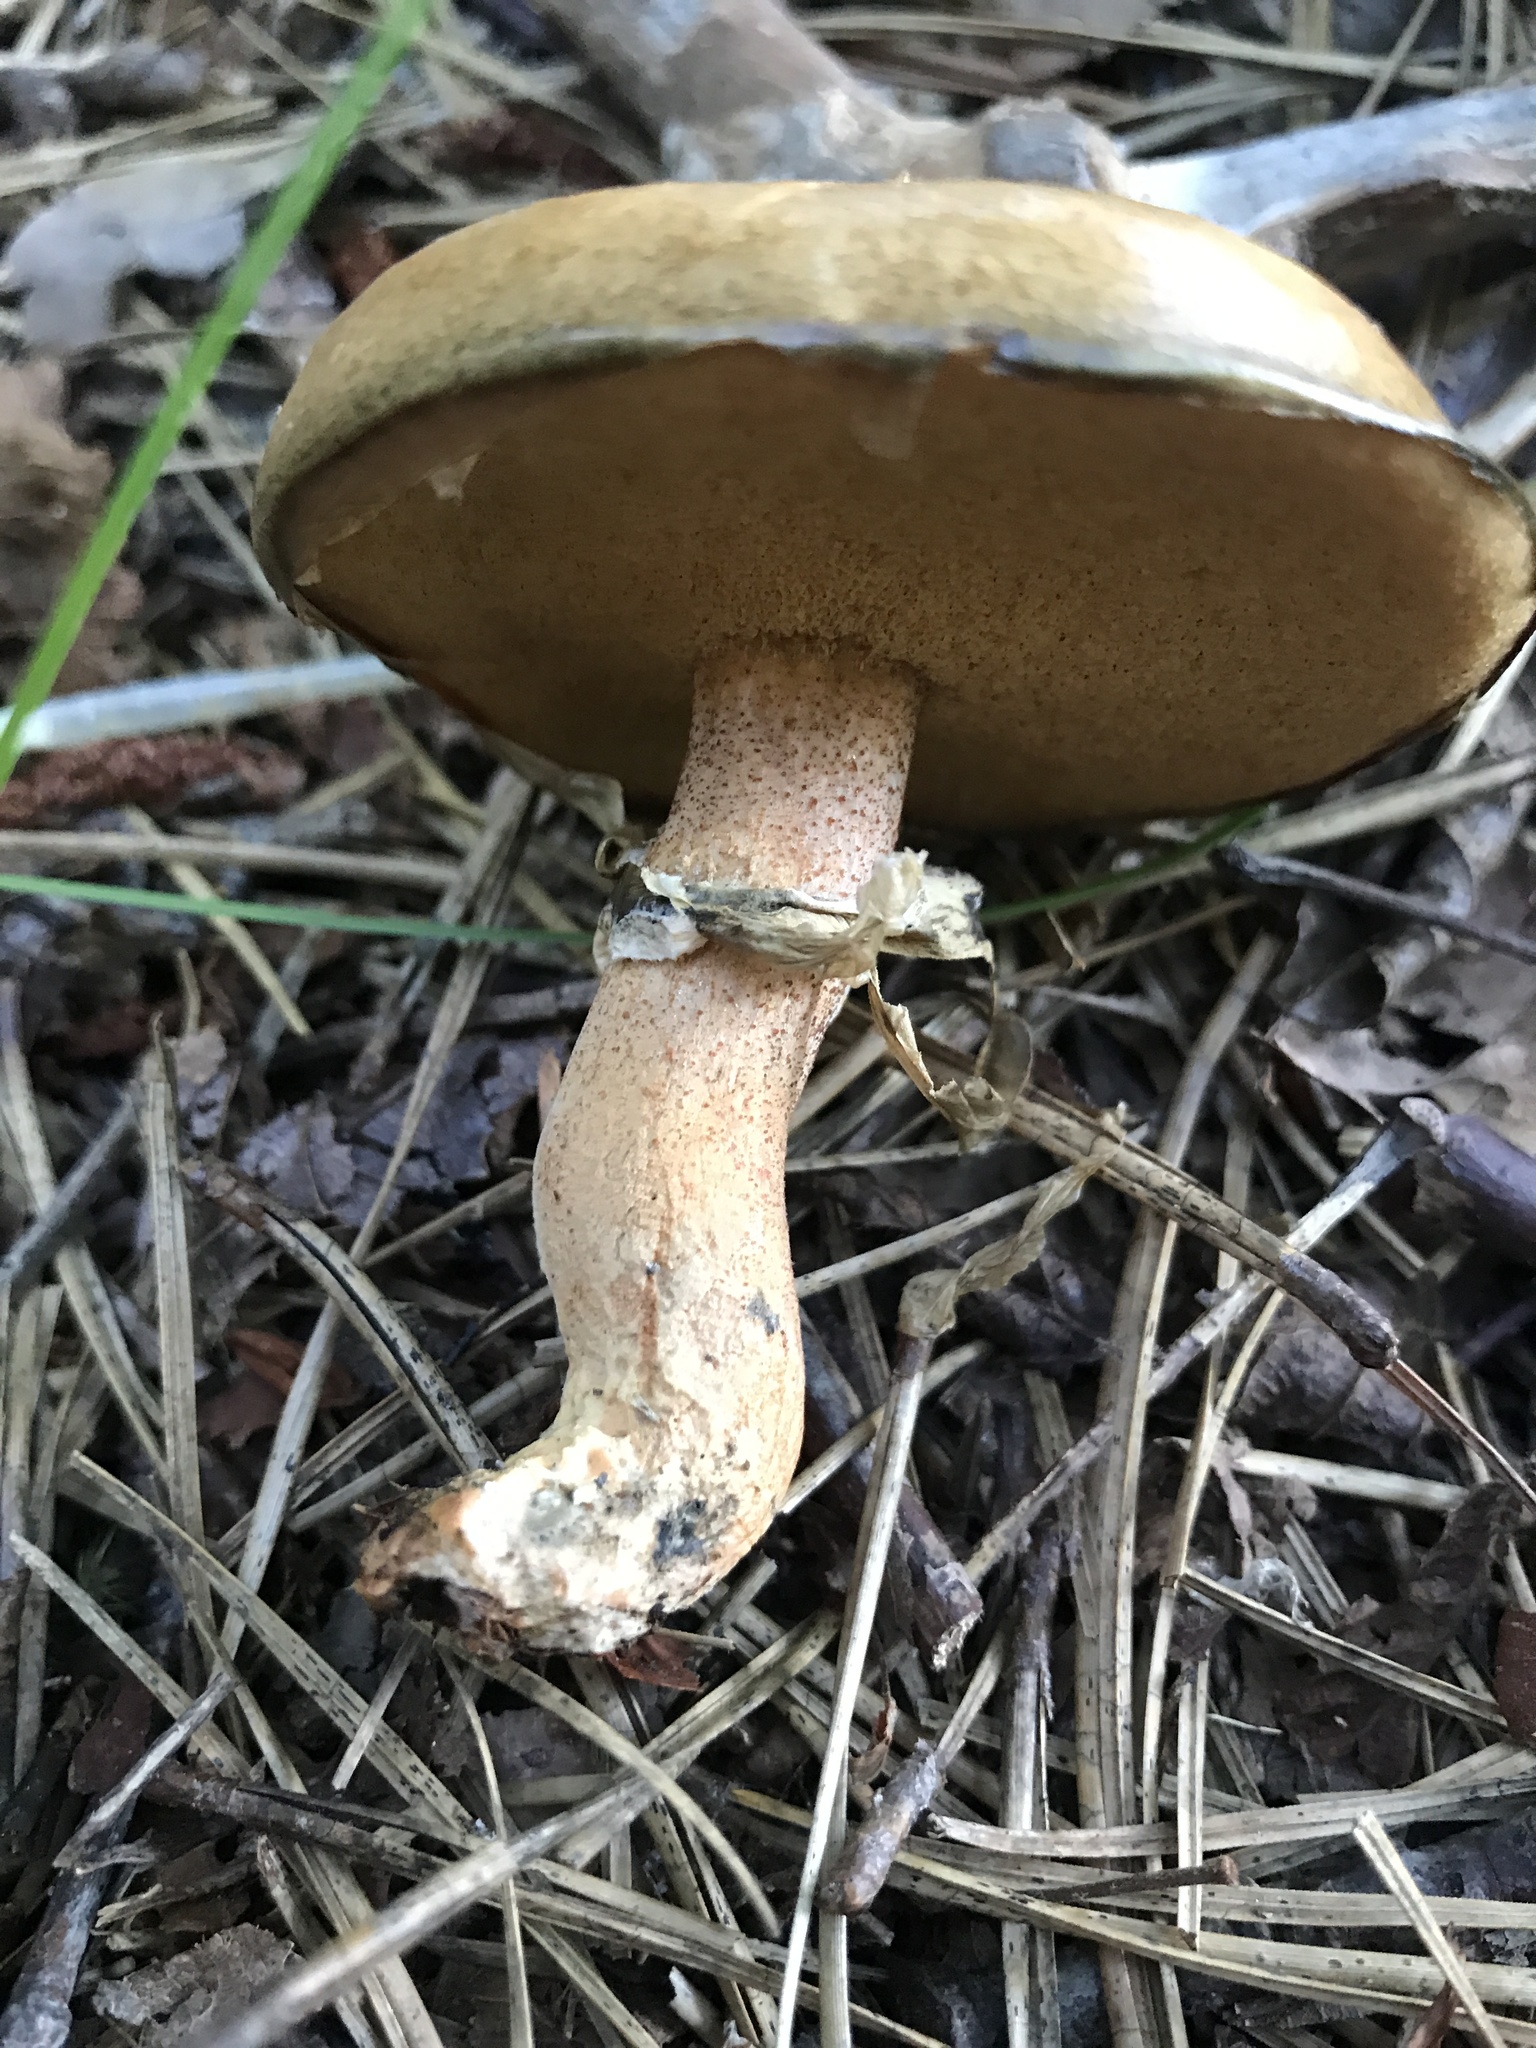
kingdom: Fungi
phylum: Basidiomycota
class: Agaricomycetes
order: Boletales
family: Suillaceae
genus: Suillus
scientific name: Suillus salmonicolor
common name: Slippery jill
